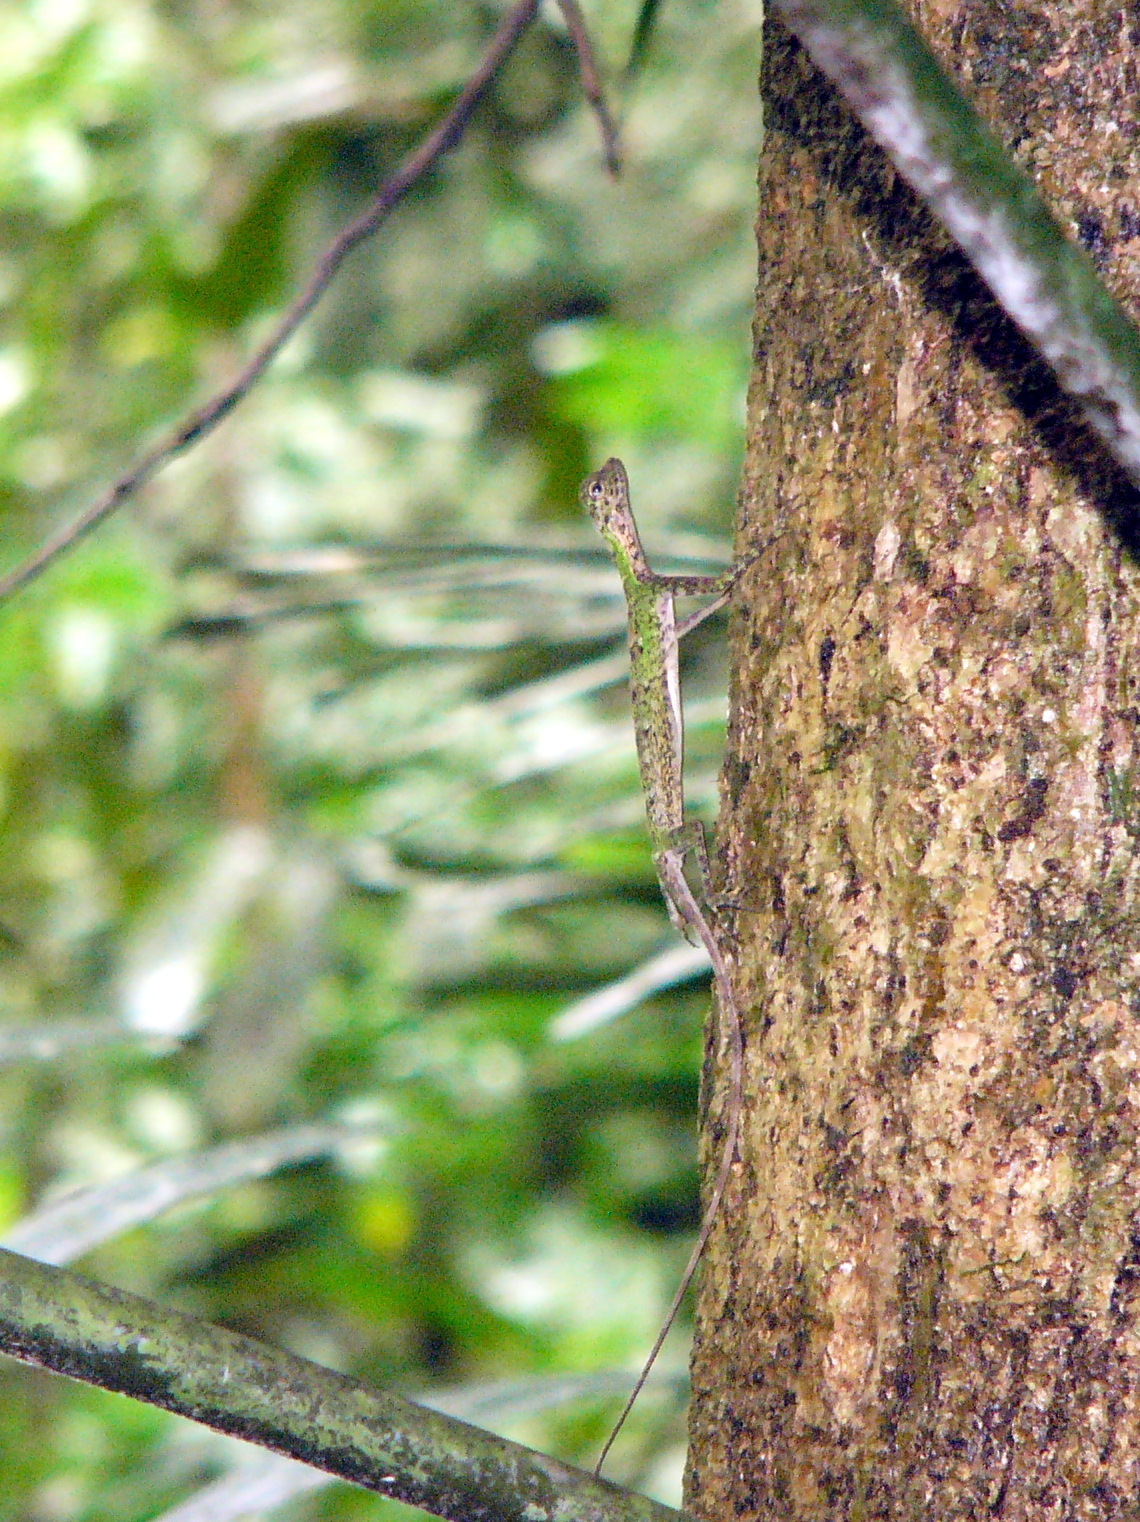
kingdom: Animalia
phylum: Chordata
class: Squamata
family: Agamidae
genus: Draco
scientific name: Draco cornutus
